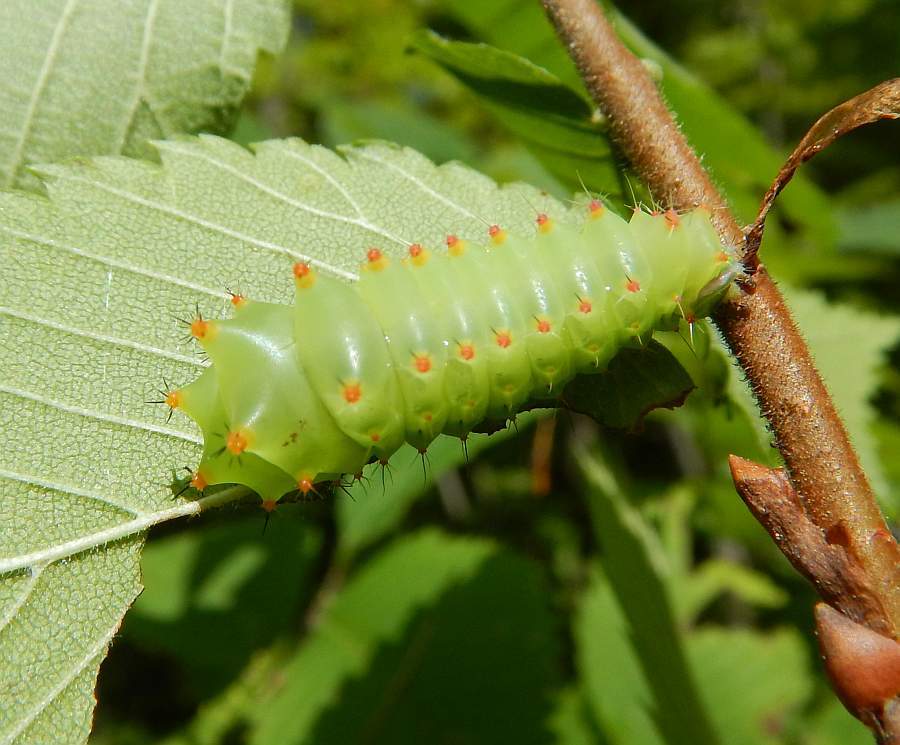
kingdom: Animalia
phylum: Arthropoda
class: Insecta
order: Lepidoptera
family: Saturniidae
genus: Antheraea
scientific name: Antheraea polyphemus
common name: Polyphemus moth
